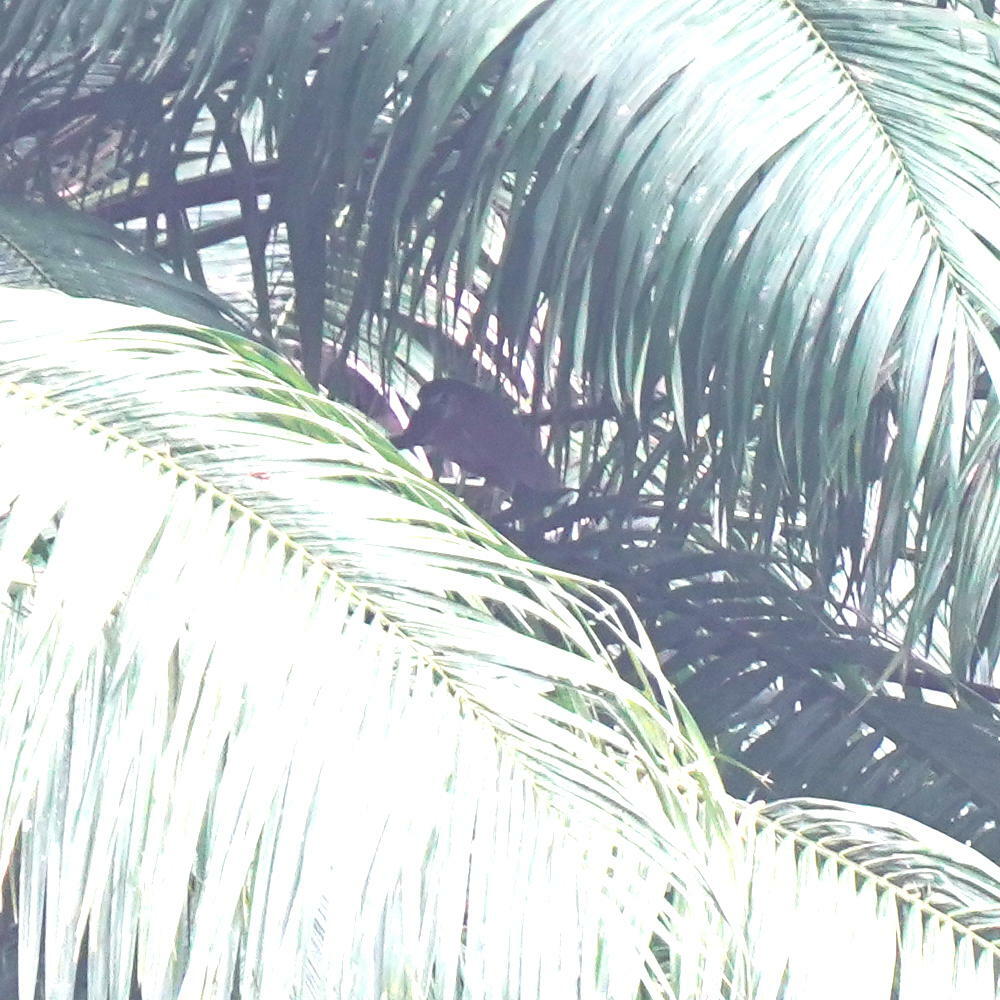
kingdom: Animalia
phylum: Chordata
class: Aves
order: Pelecaniformes
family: Ardeidae
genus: Cochlearius
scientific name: Cochlearius cochlearius
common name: Boat-billed heron
